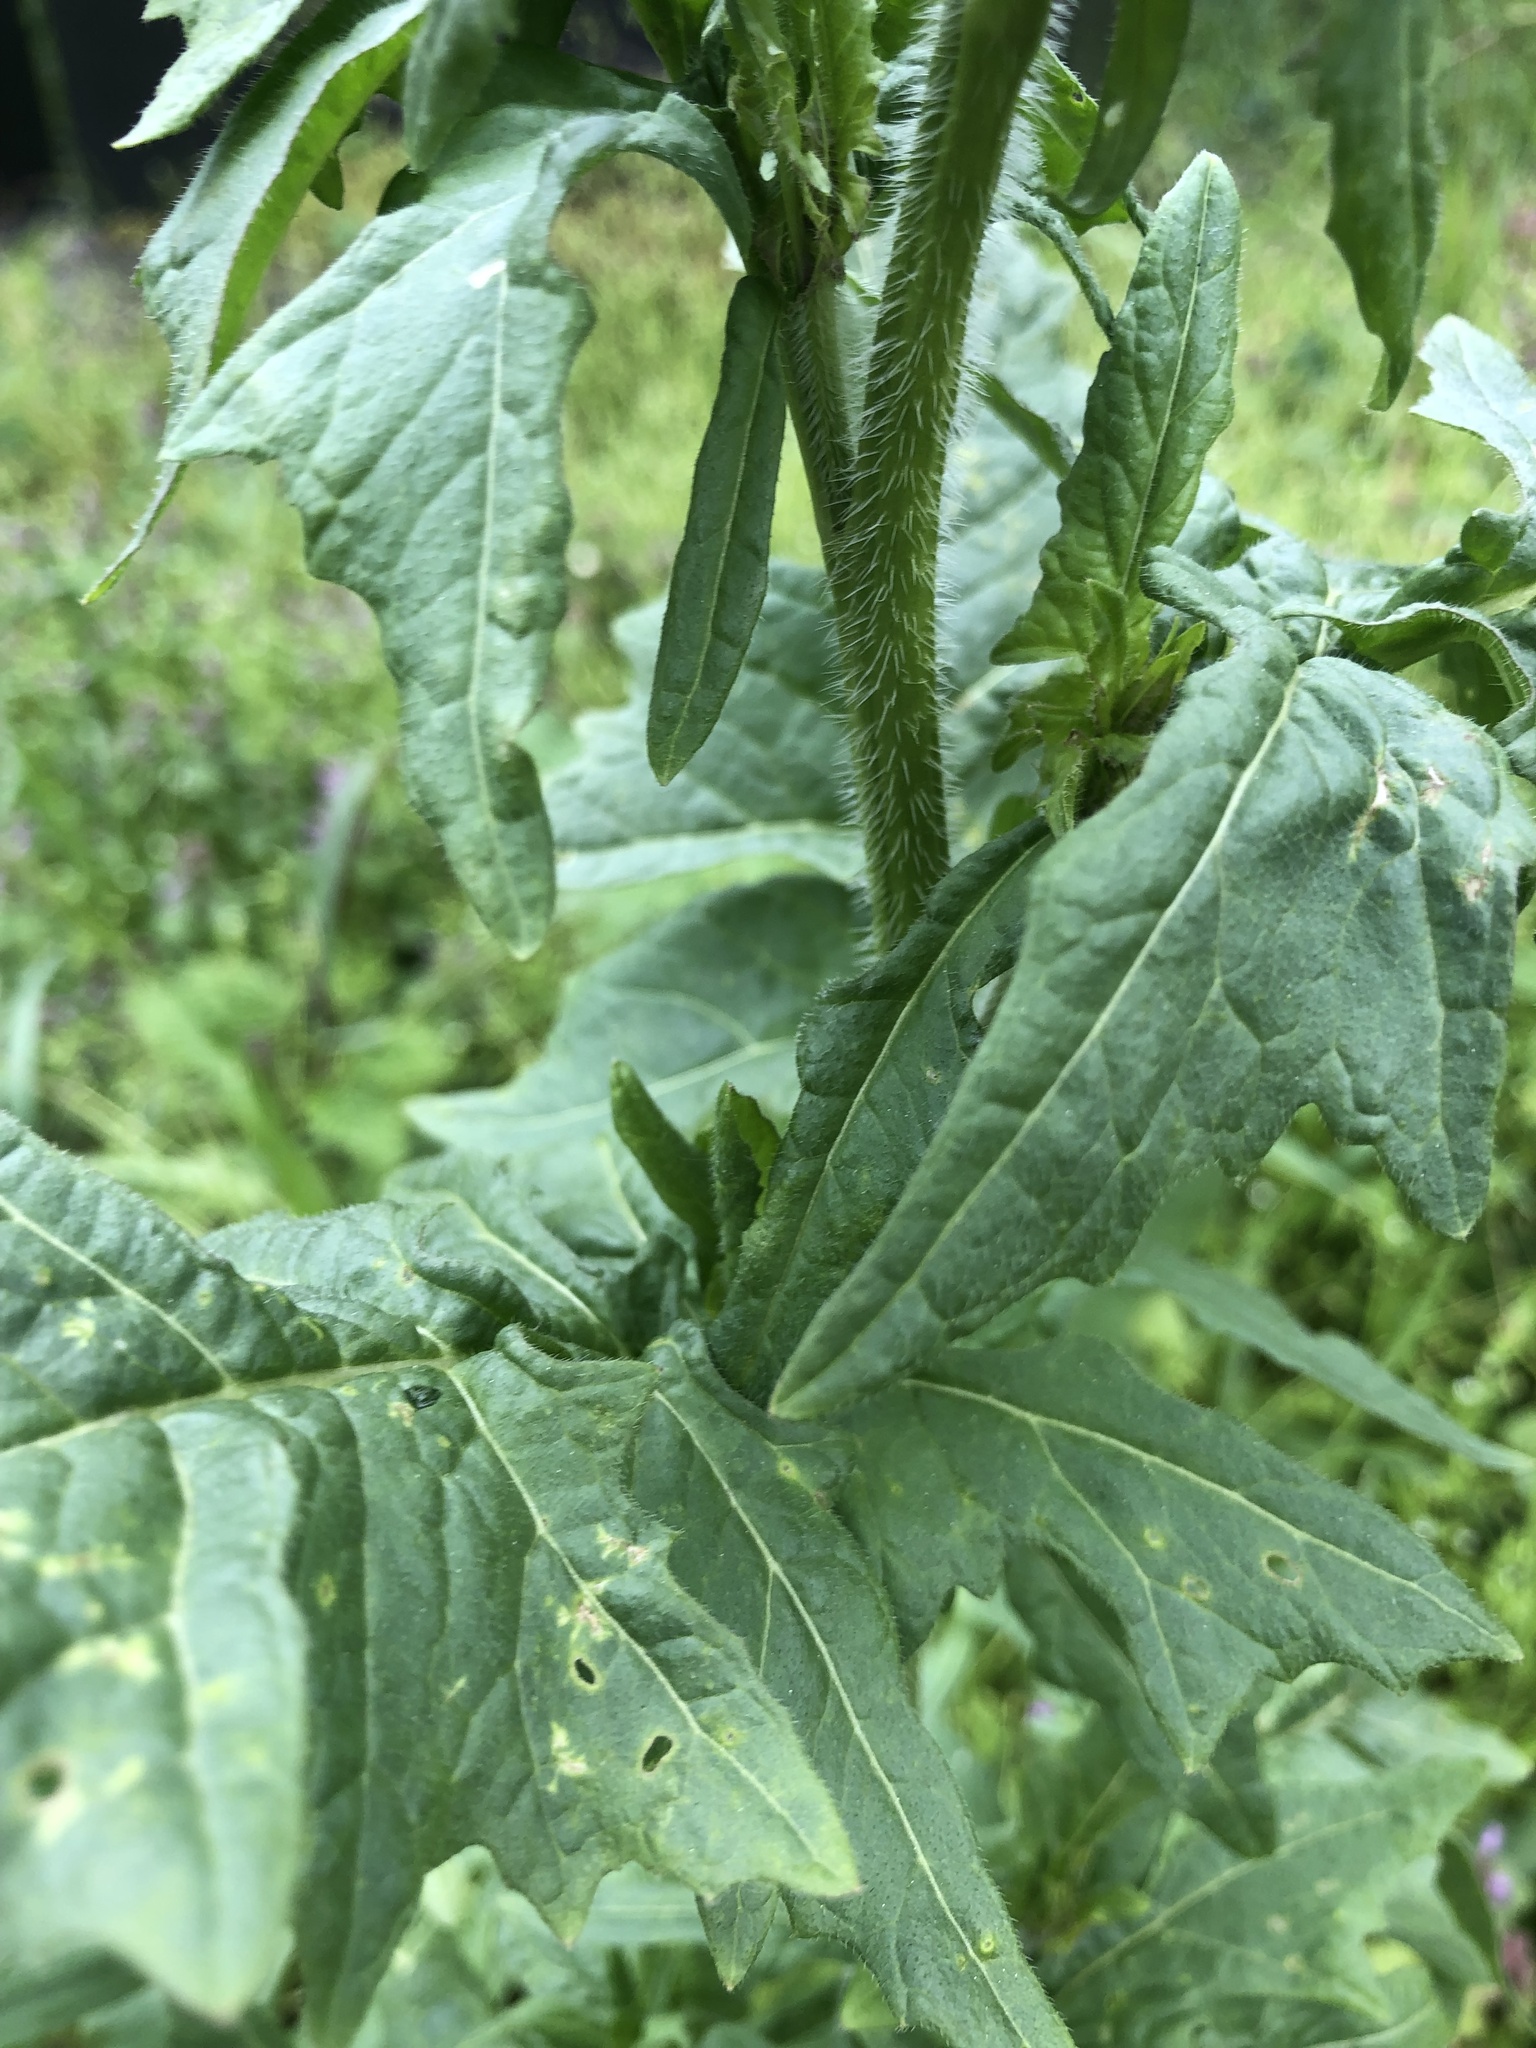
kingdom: Plantae
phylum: Tracheophyta
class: Magnoliopsida
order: Brassicales
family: Brassicaceae
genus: Sisymbrium
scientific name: Sisymbrium loeselii
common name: False london-rocket
